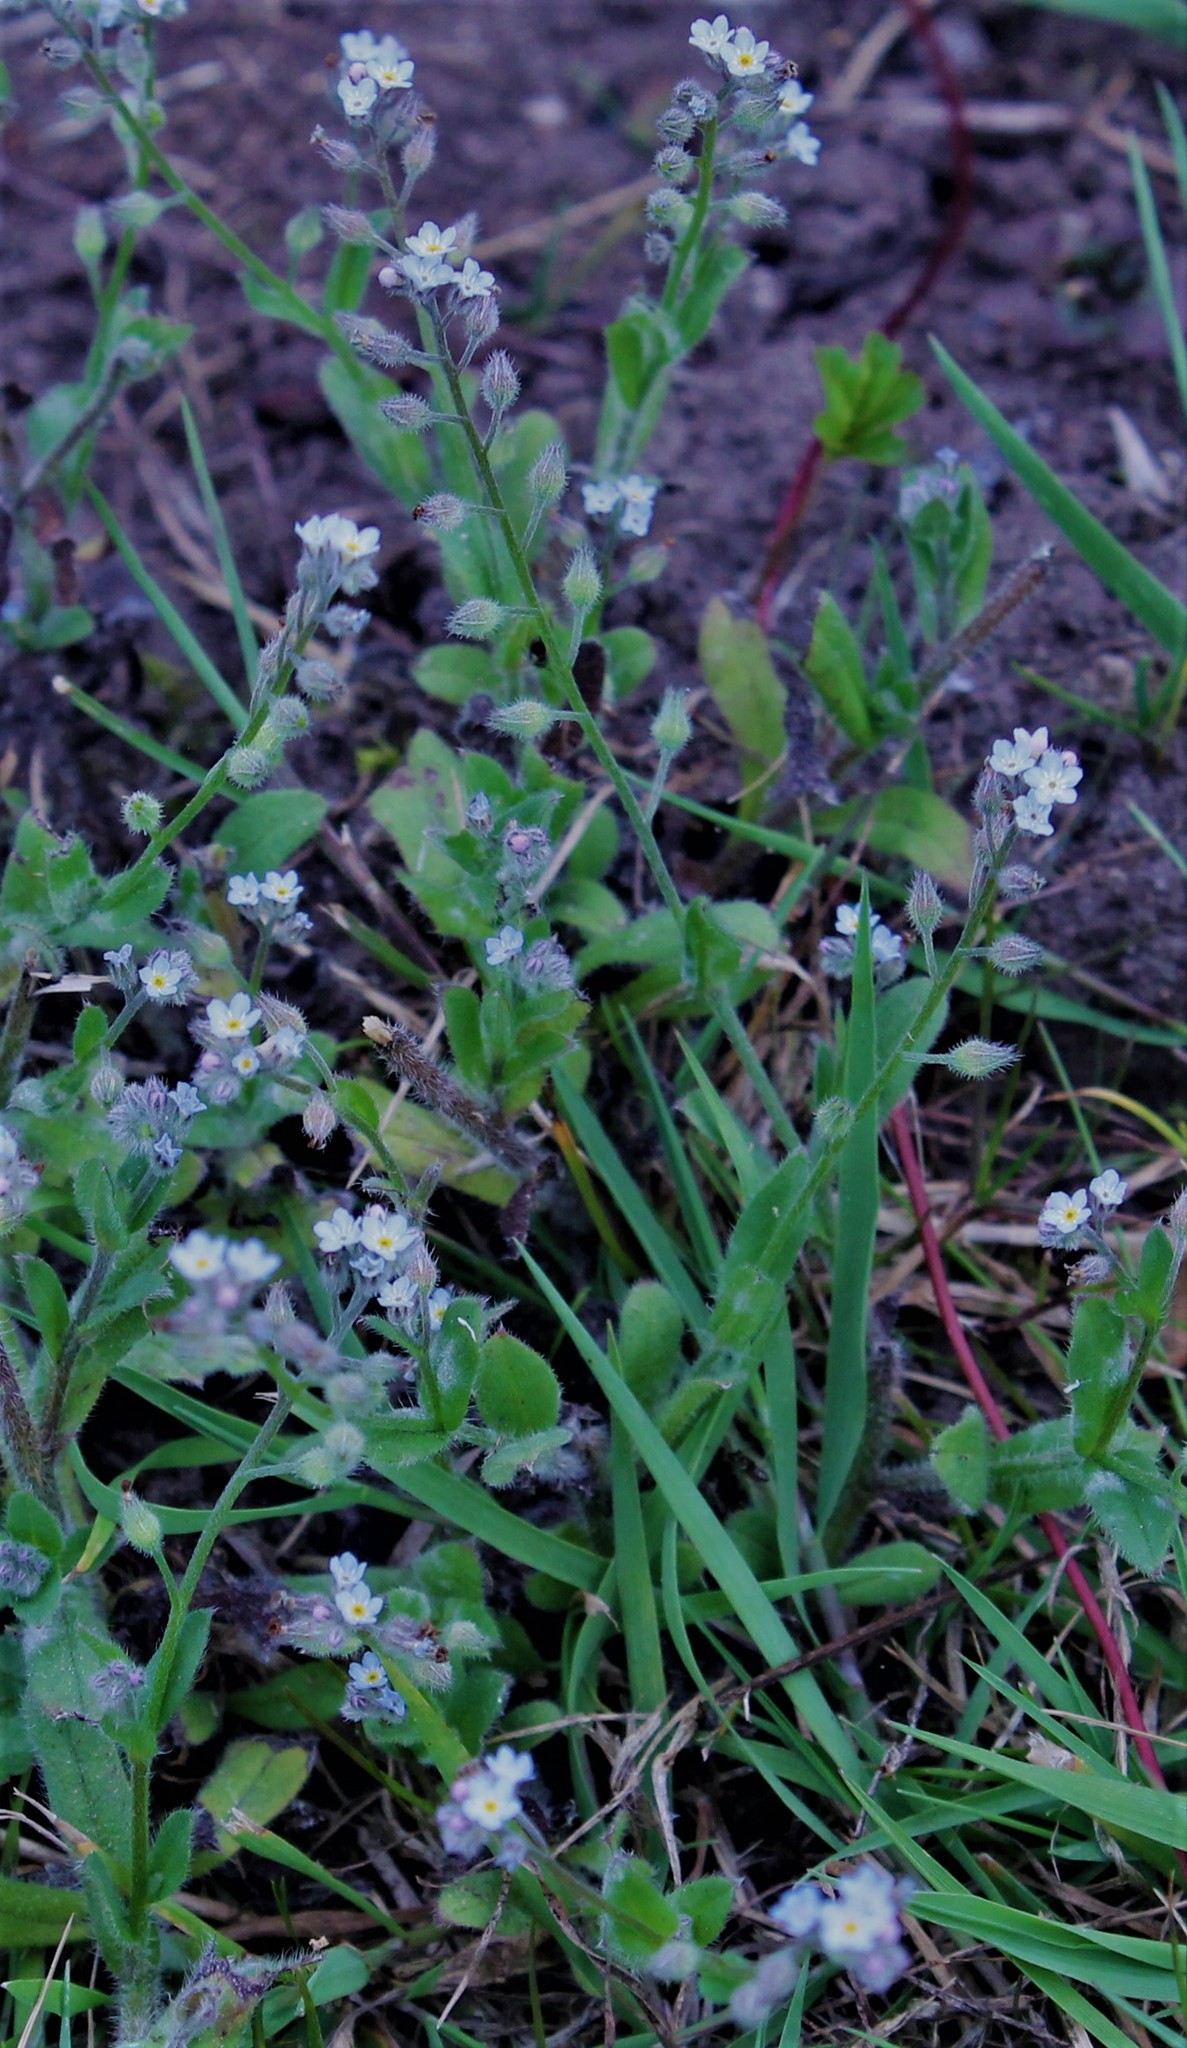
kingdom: Plantae
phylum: Tracheophyta
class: Magnoliopsida
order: Boraginales
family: Boraginaceae
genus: Myosotis
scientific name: Myosotis arvensis
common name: Field forget-me-not
